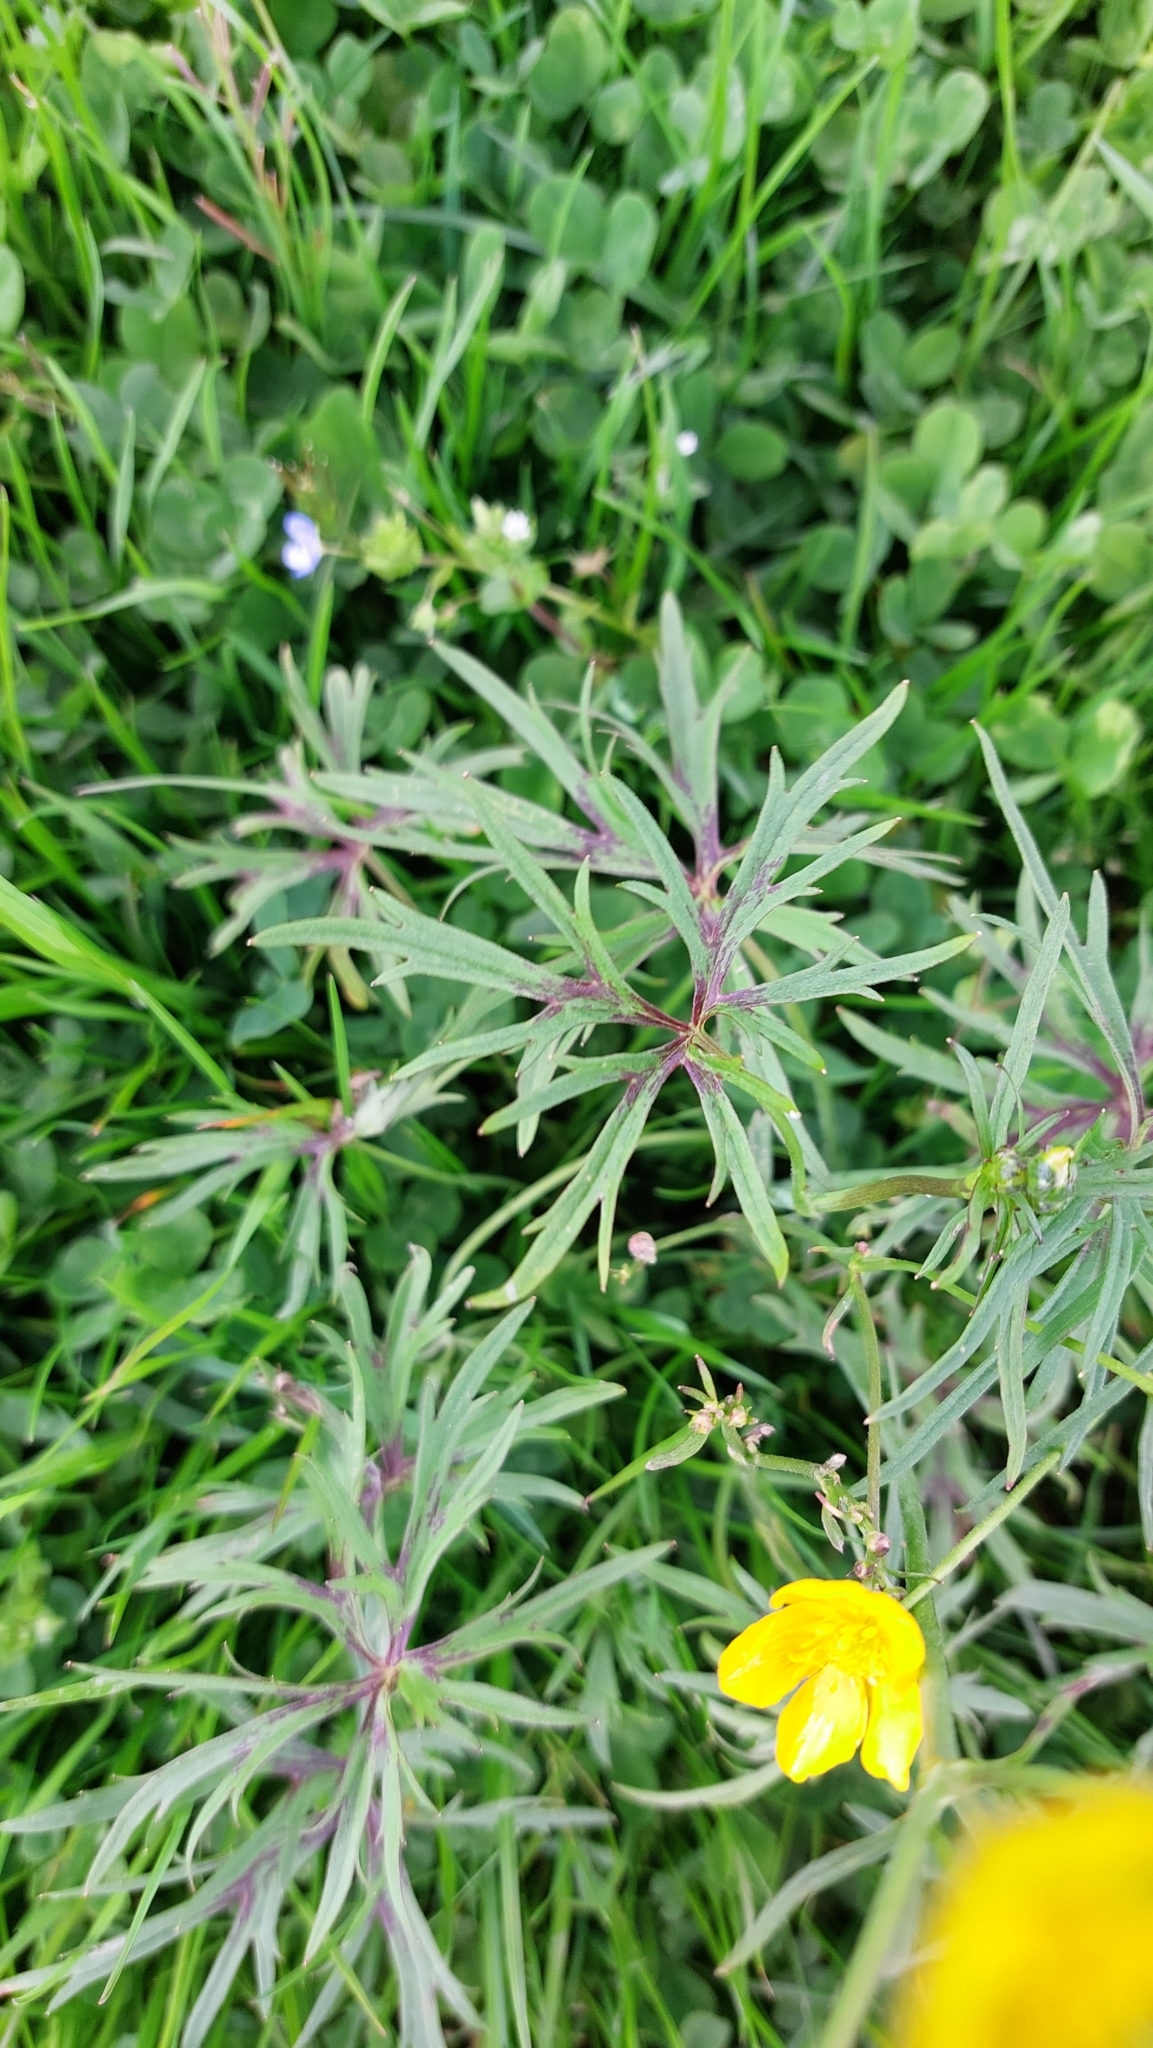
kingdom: Plantae
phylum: Tracheophyta
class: Magnoliopsida
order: Ranunculales
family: Ranunculaceae
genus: Ranunculus
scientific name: Ranunculus acris
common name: Meadow buttercup
